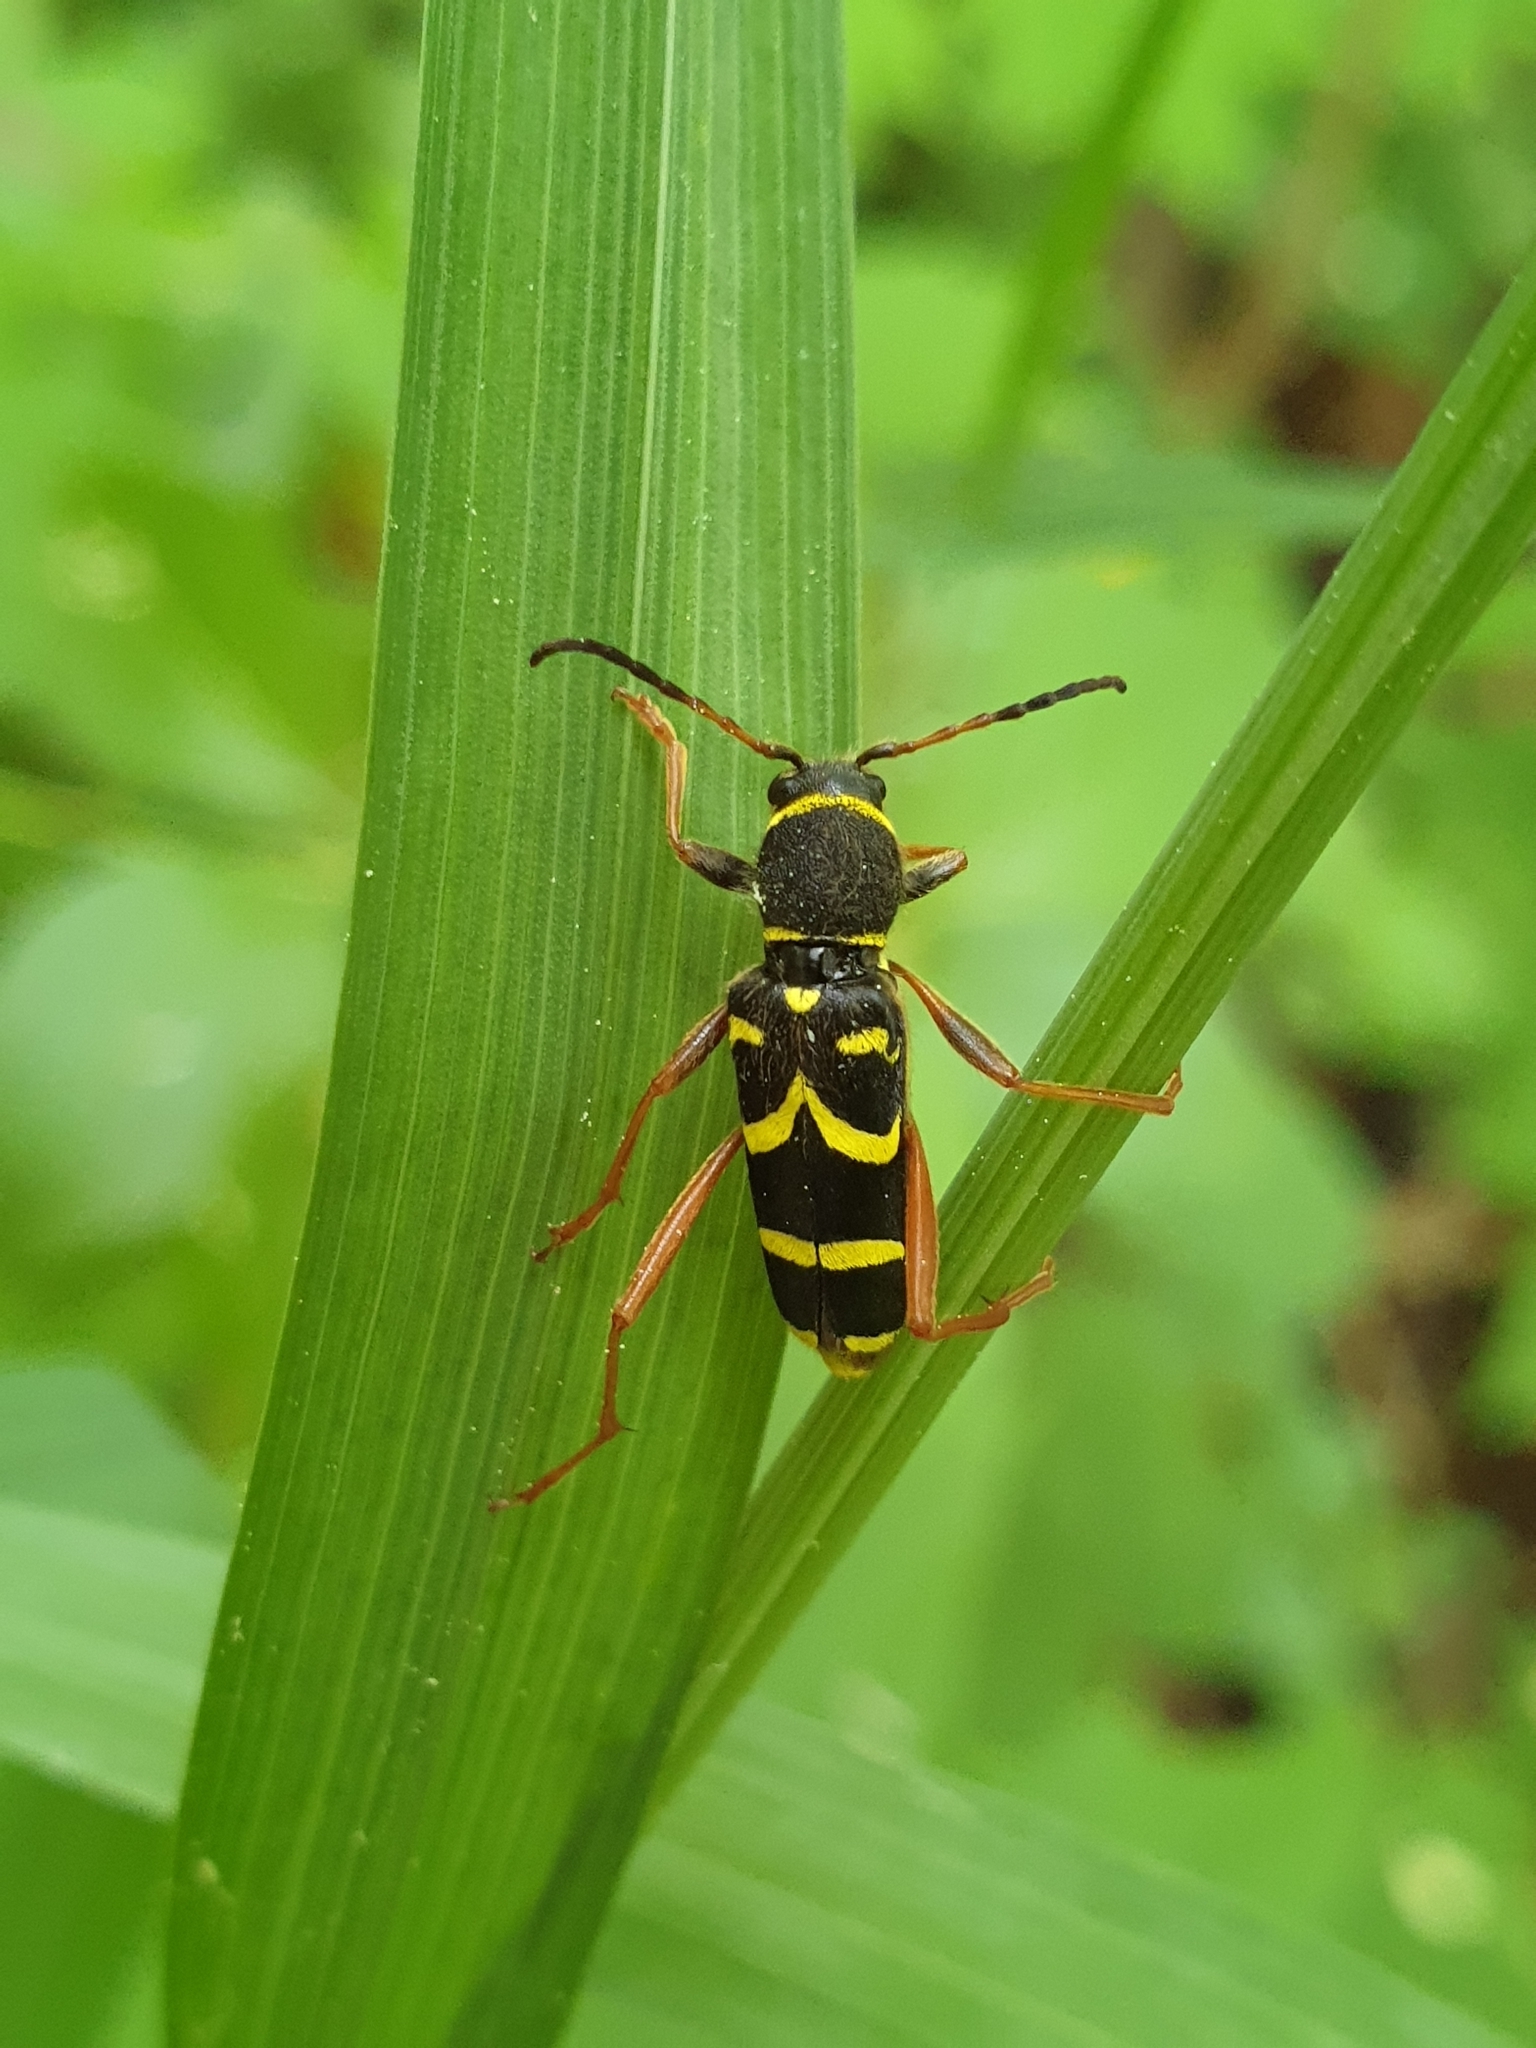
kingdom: Animalia
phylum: Arthropoda
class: Insecta
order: Coleoptera
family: Cerambycidae
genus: Clytus
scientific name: Clytus arietis
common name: Wasp beetle
